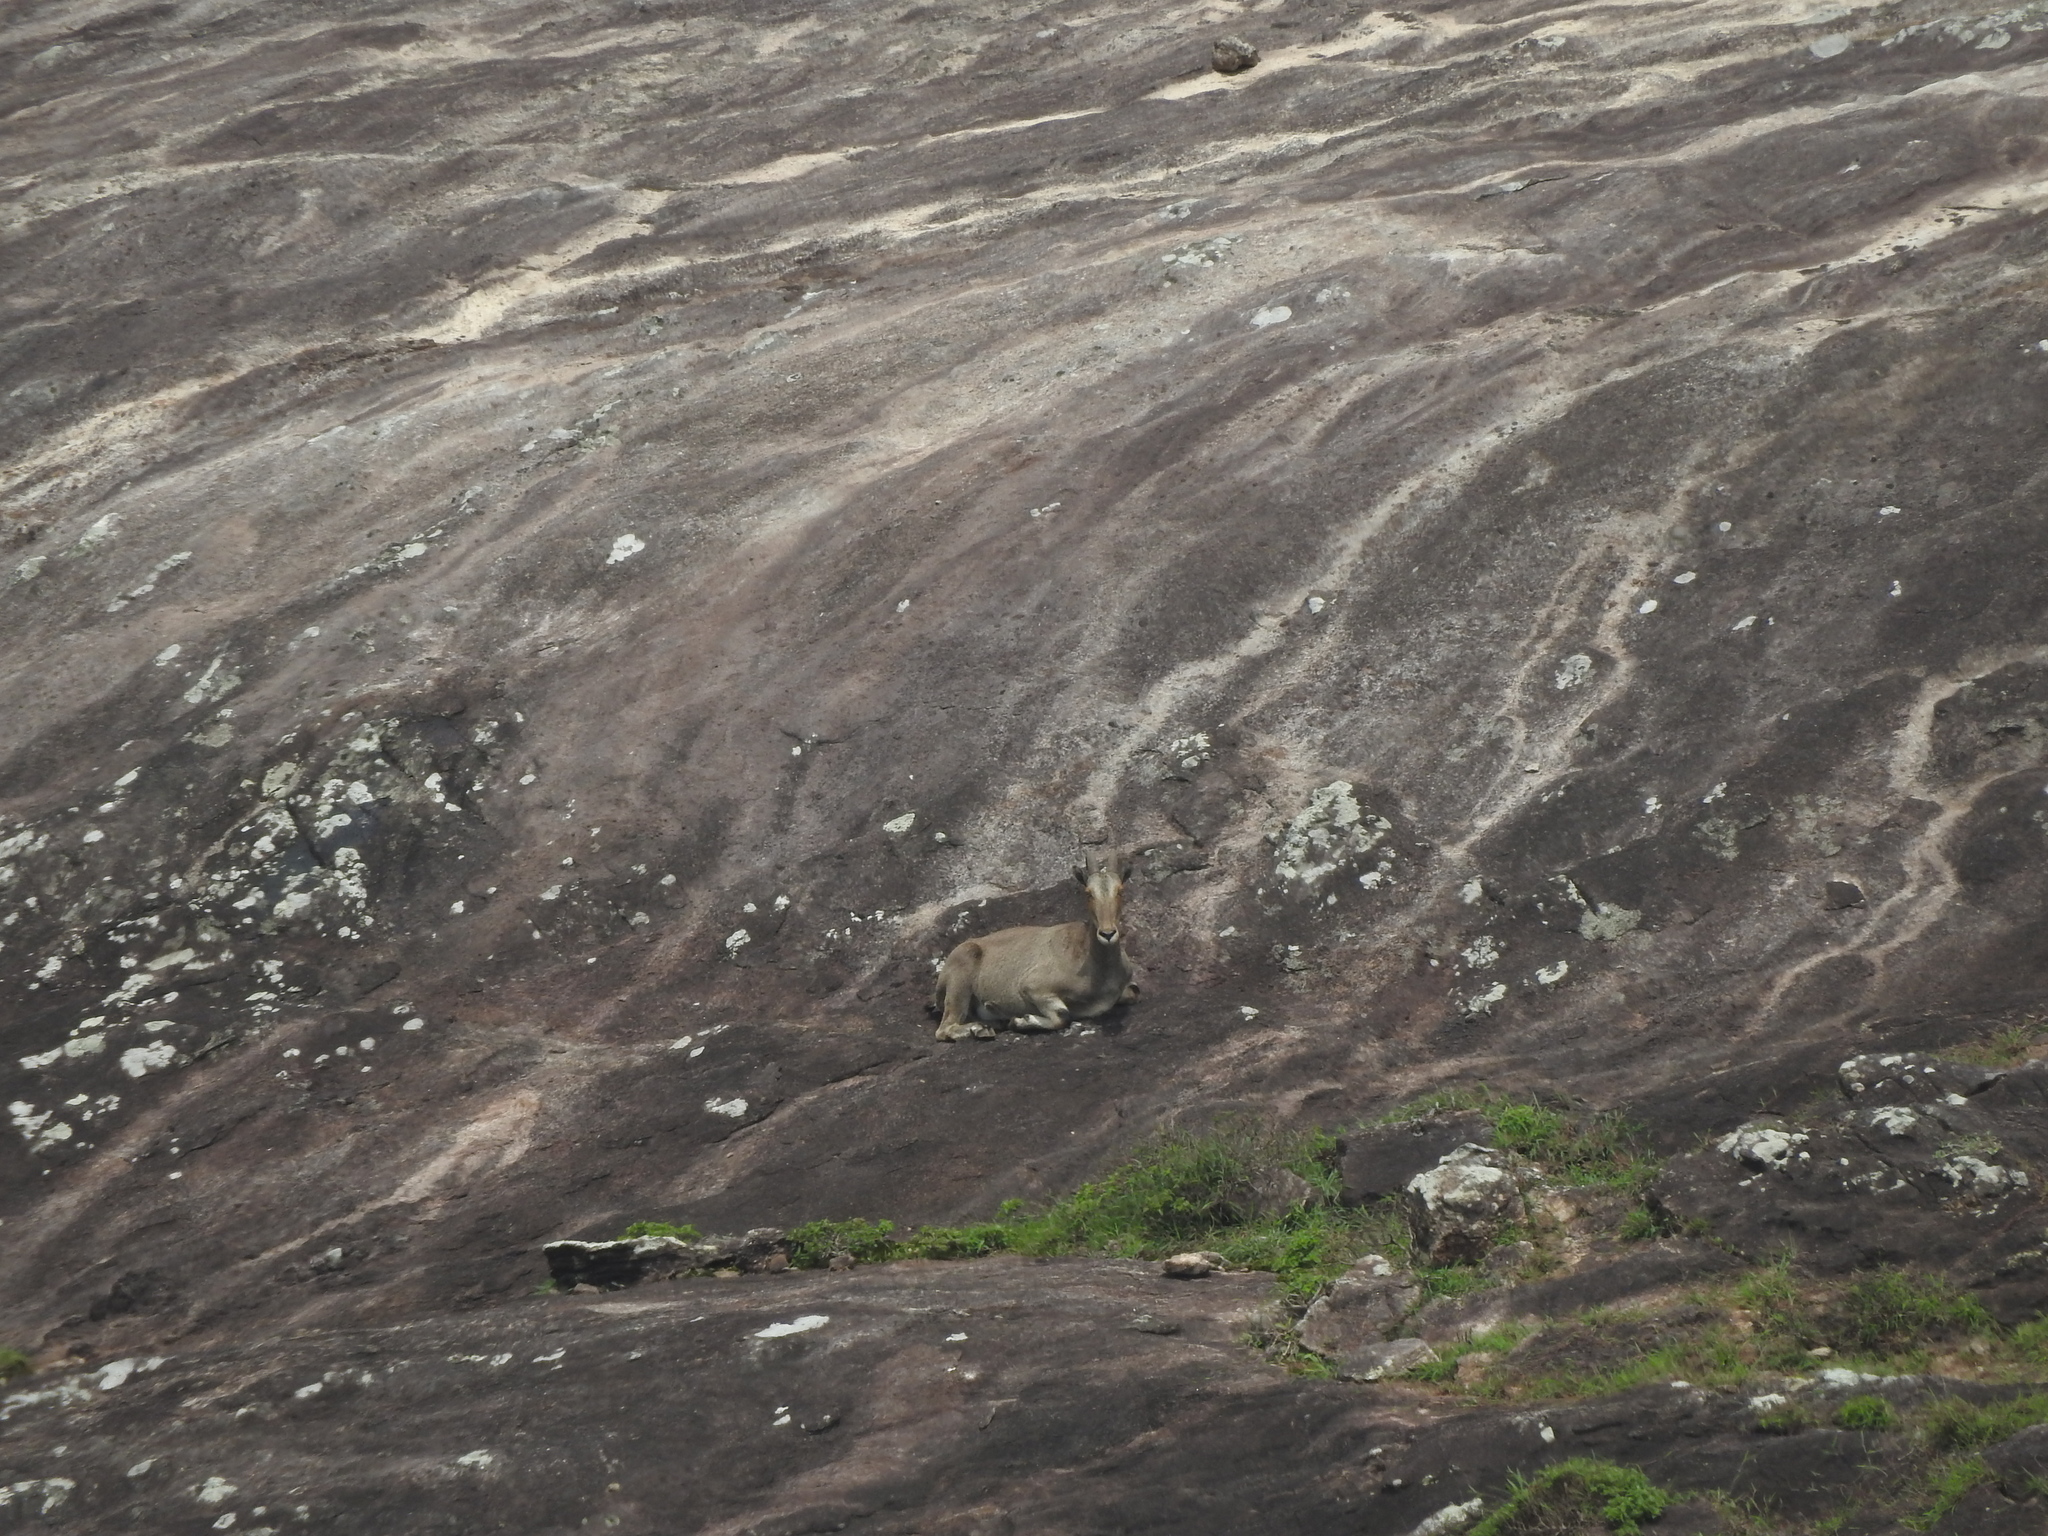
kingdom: Animalia
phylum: Chordata
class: Mammalia
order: Artiodactyla
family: Bovidae
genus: Hemitragus
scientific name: Hemitragus hylocrius
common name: Nilgiri tahr
